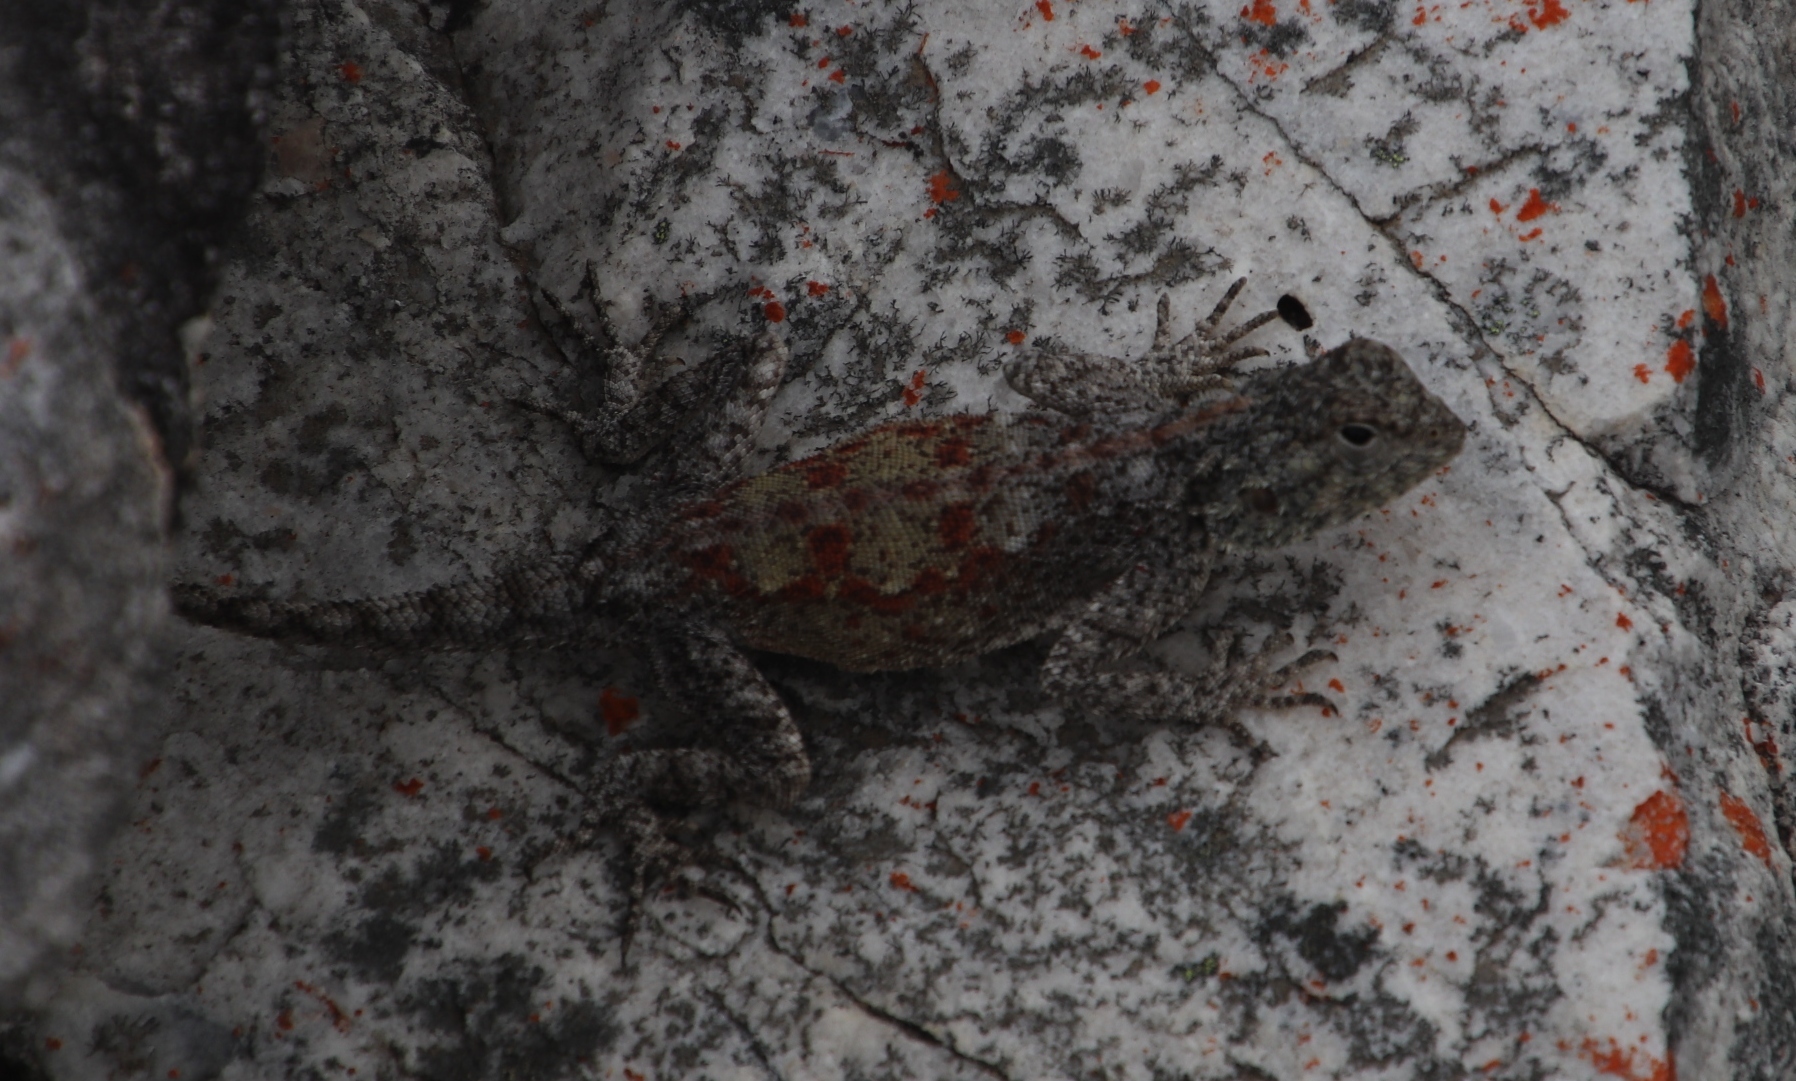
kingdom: Animalia
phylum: Chordata
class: Squamata
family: Agamidae
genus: Agama
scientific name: Agama atra
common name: Southern african rock agama
